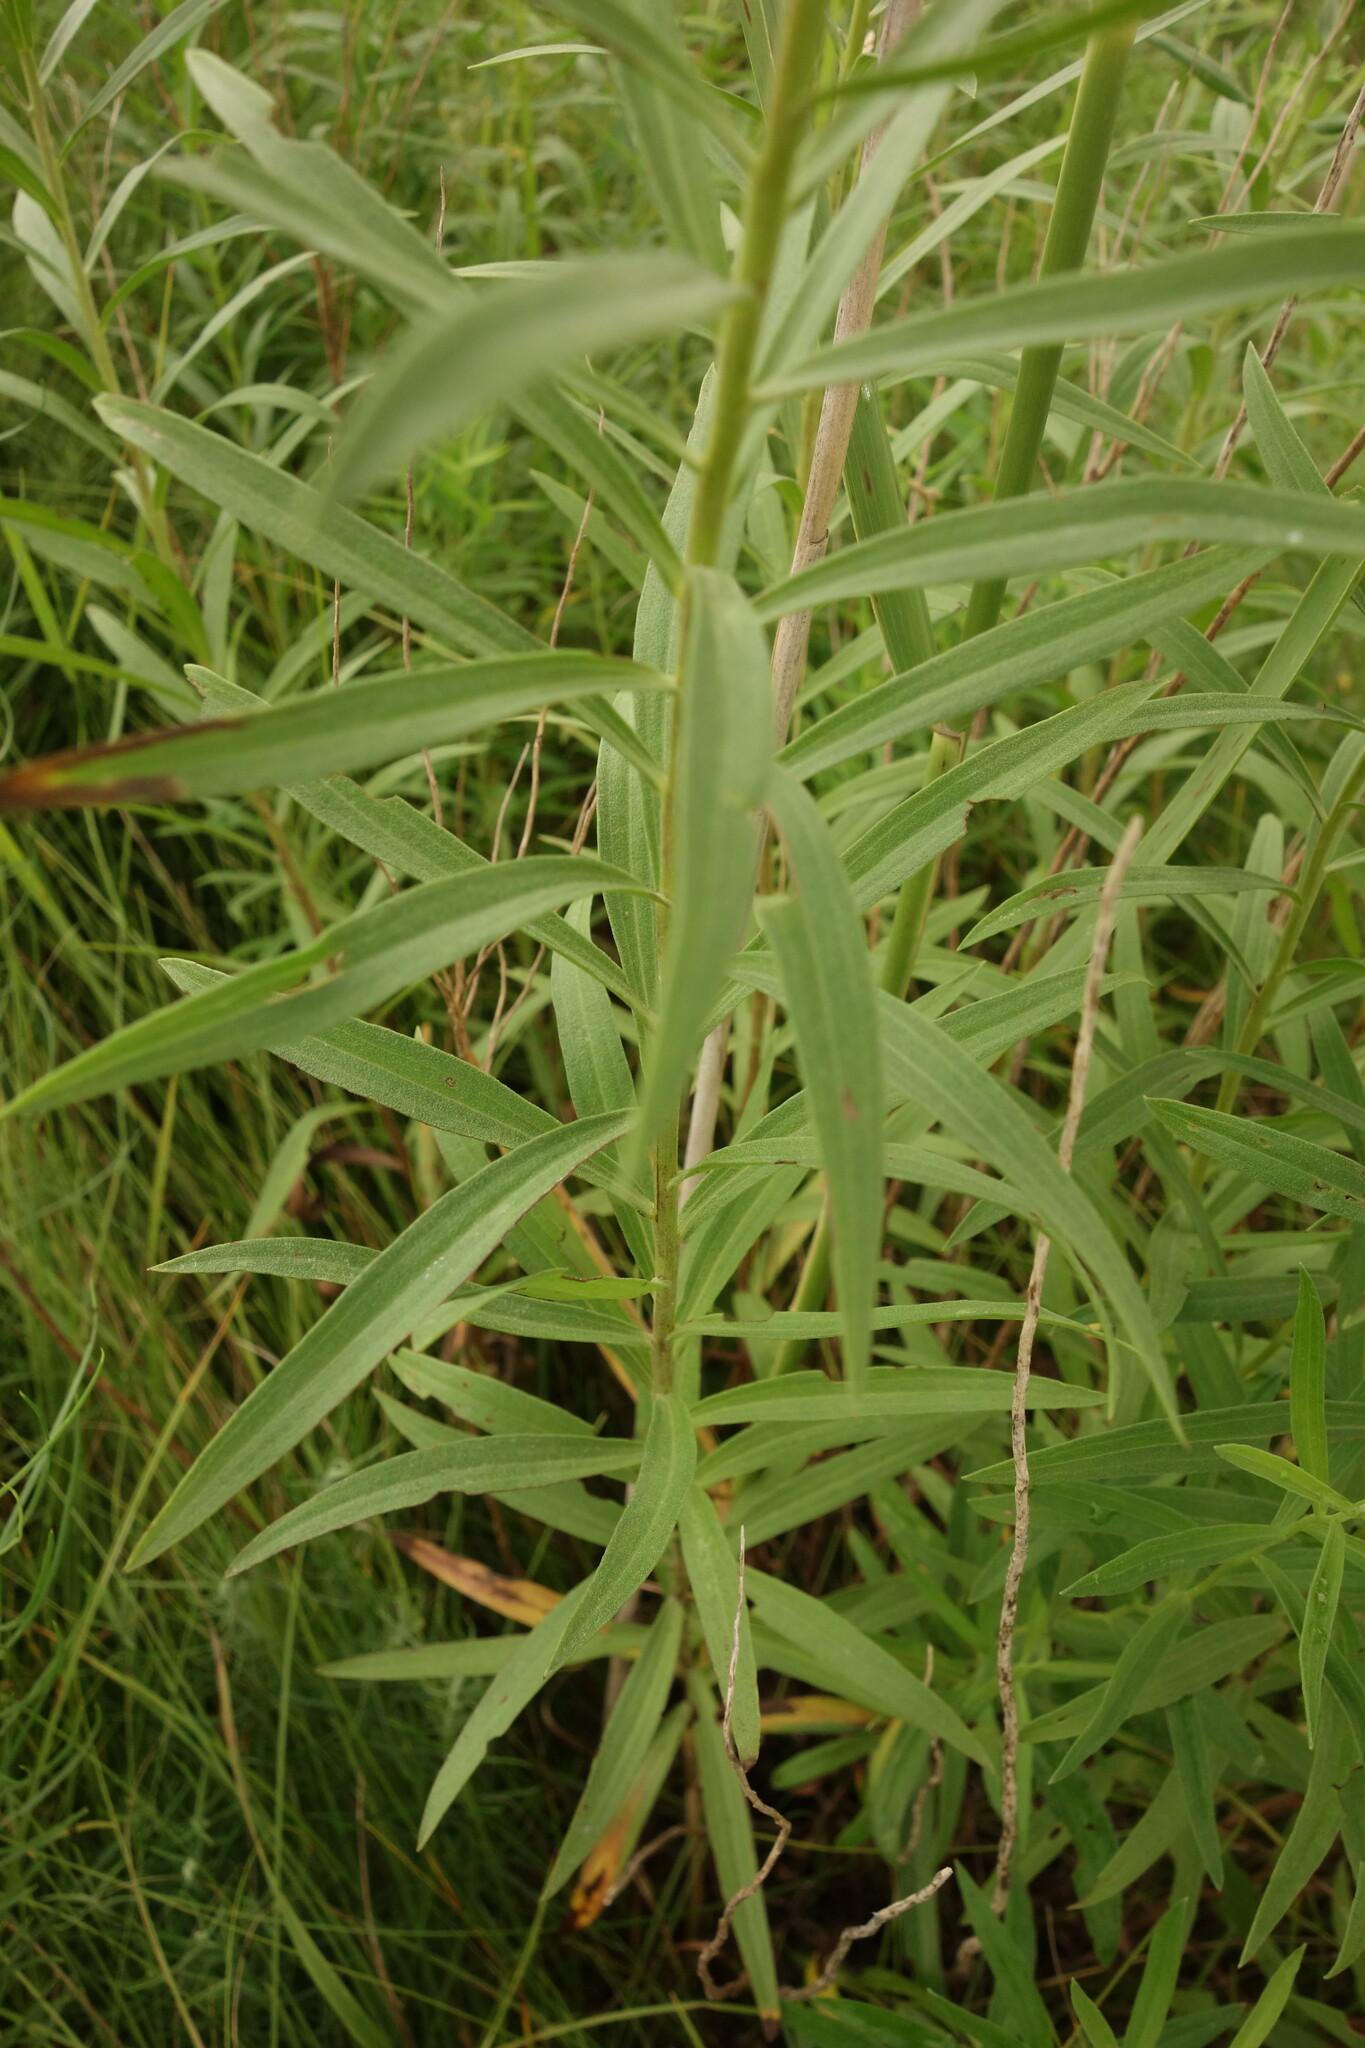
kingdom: Plantae
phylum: Tracheophyta
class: Magnoliopsida
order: Asterales
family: Asteraceae
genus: Galatella
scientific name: Galatella biflora
